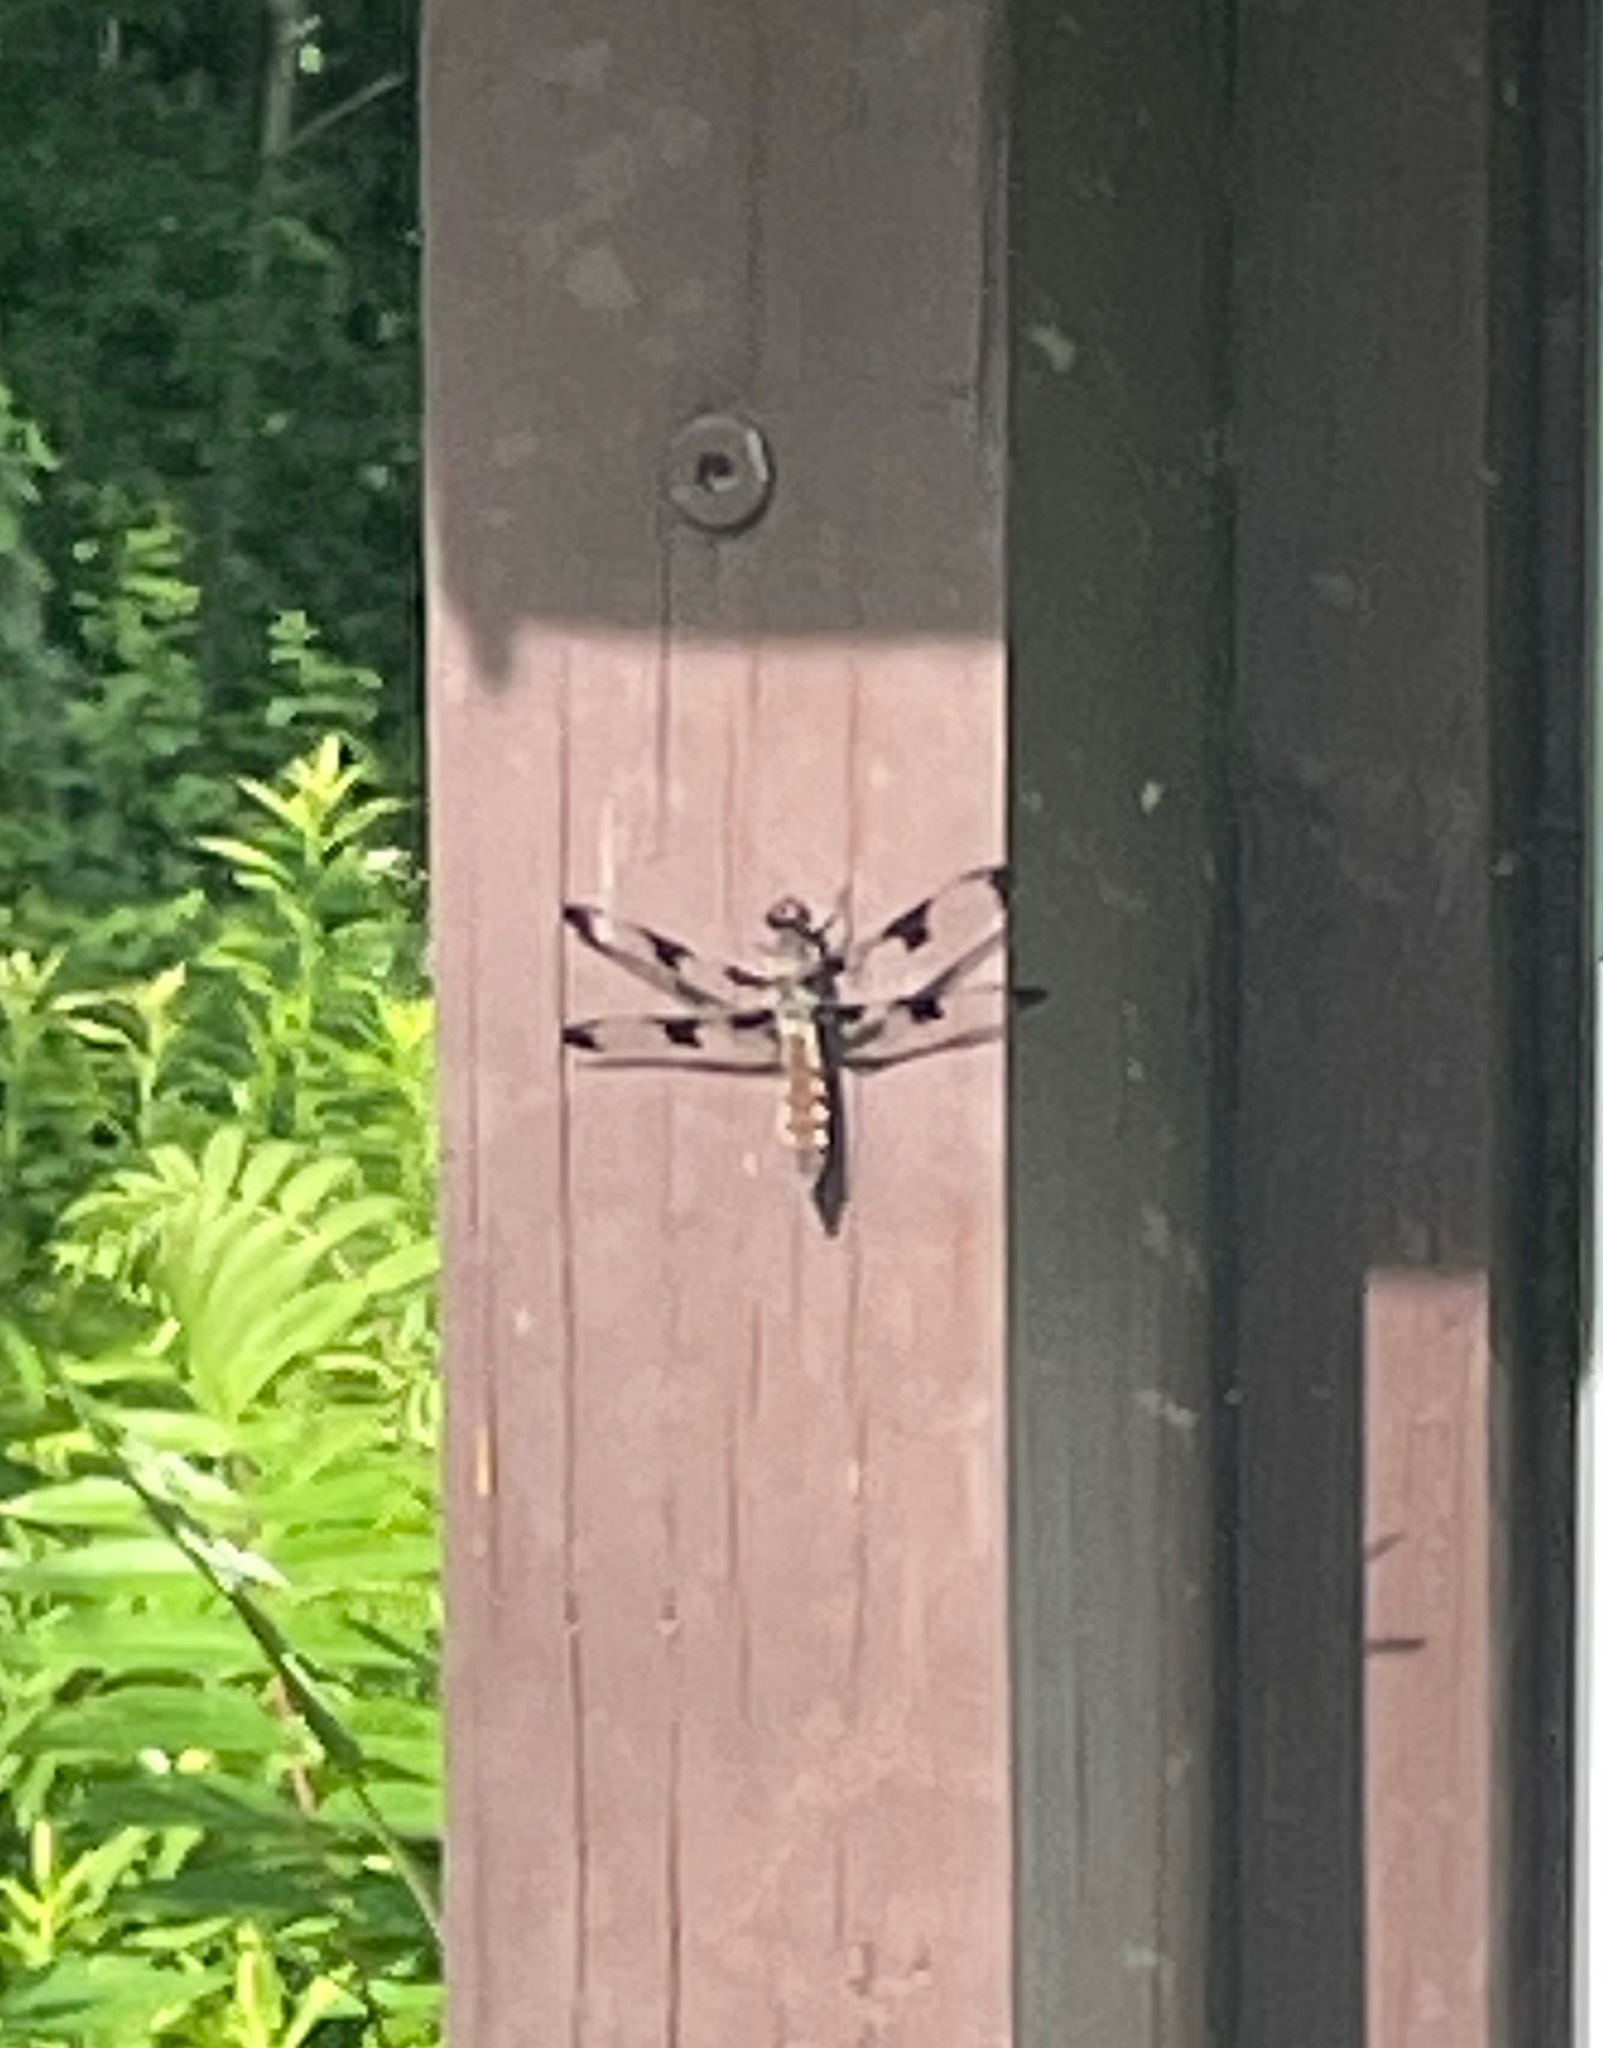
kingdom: Animalia
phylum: Arthropoda
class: Insecta
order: Odonata
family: Libellulidae
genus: Plathemis
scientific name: Plathemis lydia
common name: Common whitetail
